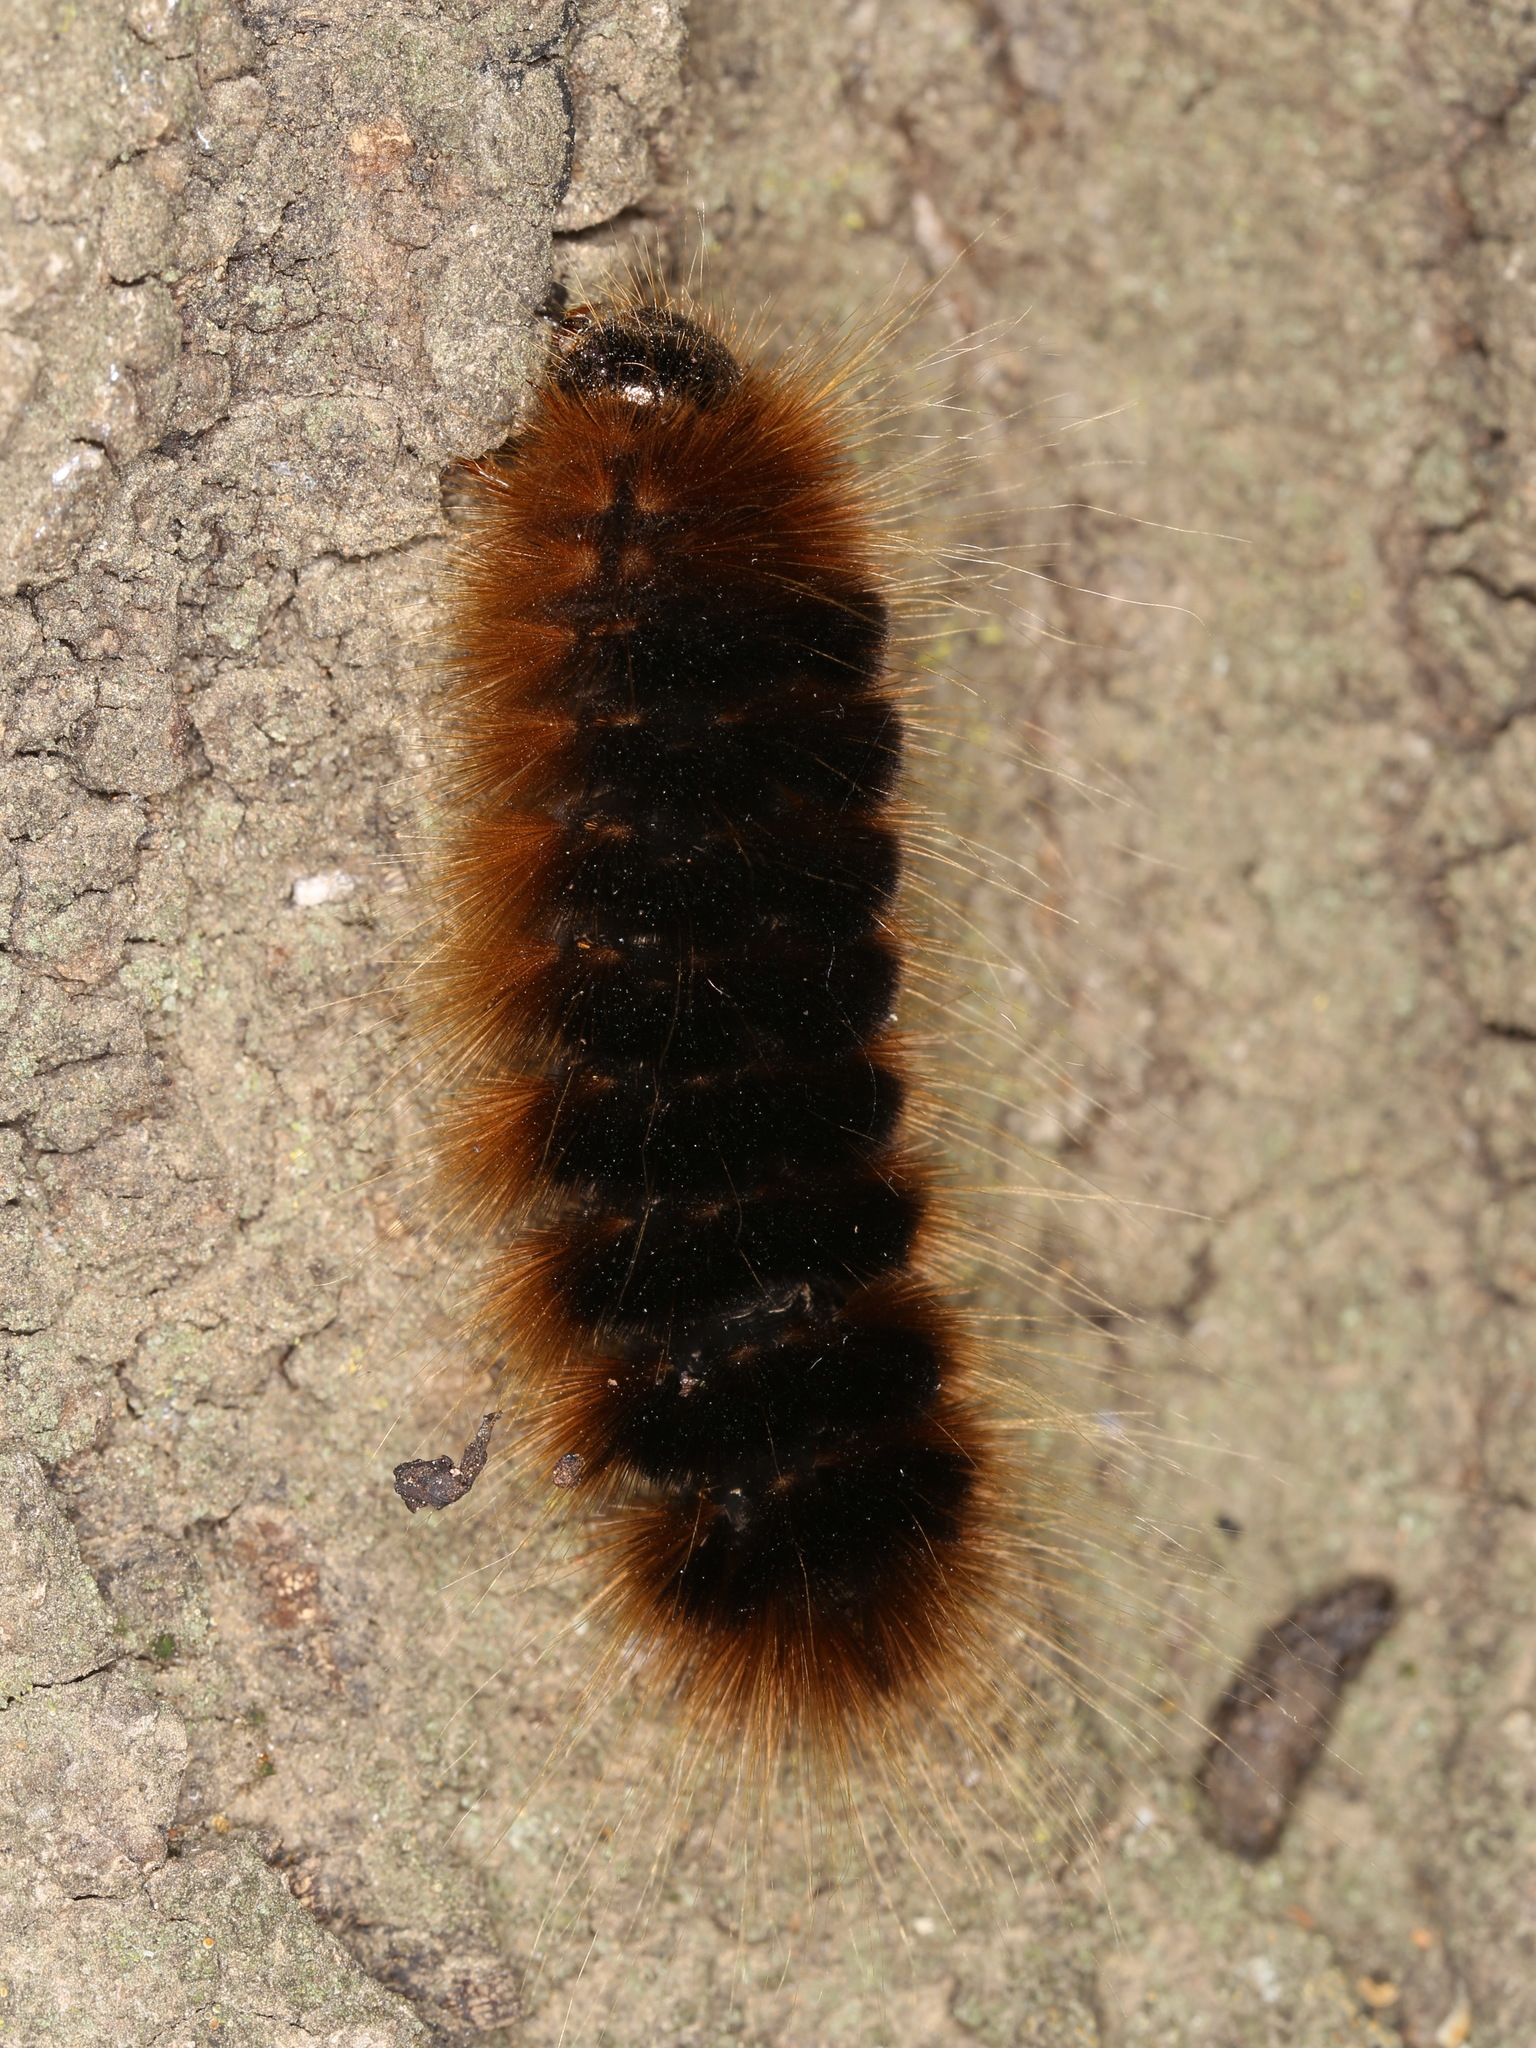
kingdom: Animalia
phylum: Arthropoda
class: Insecta
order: Lepidoptera
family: Erebidae
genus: Hemihyalea
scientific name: Hemihyalea edwardsii
